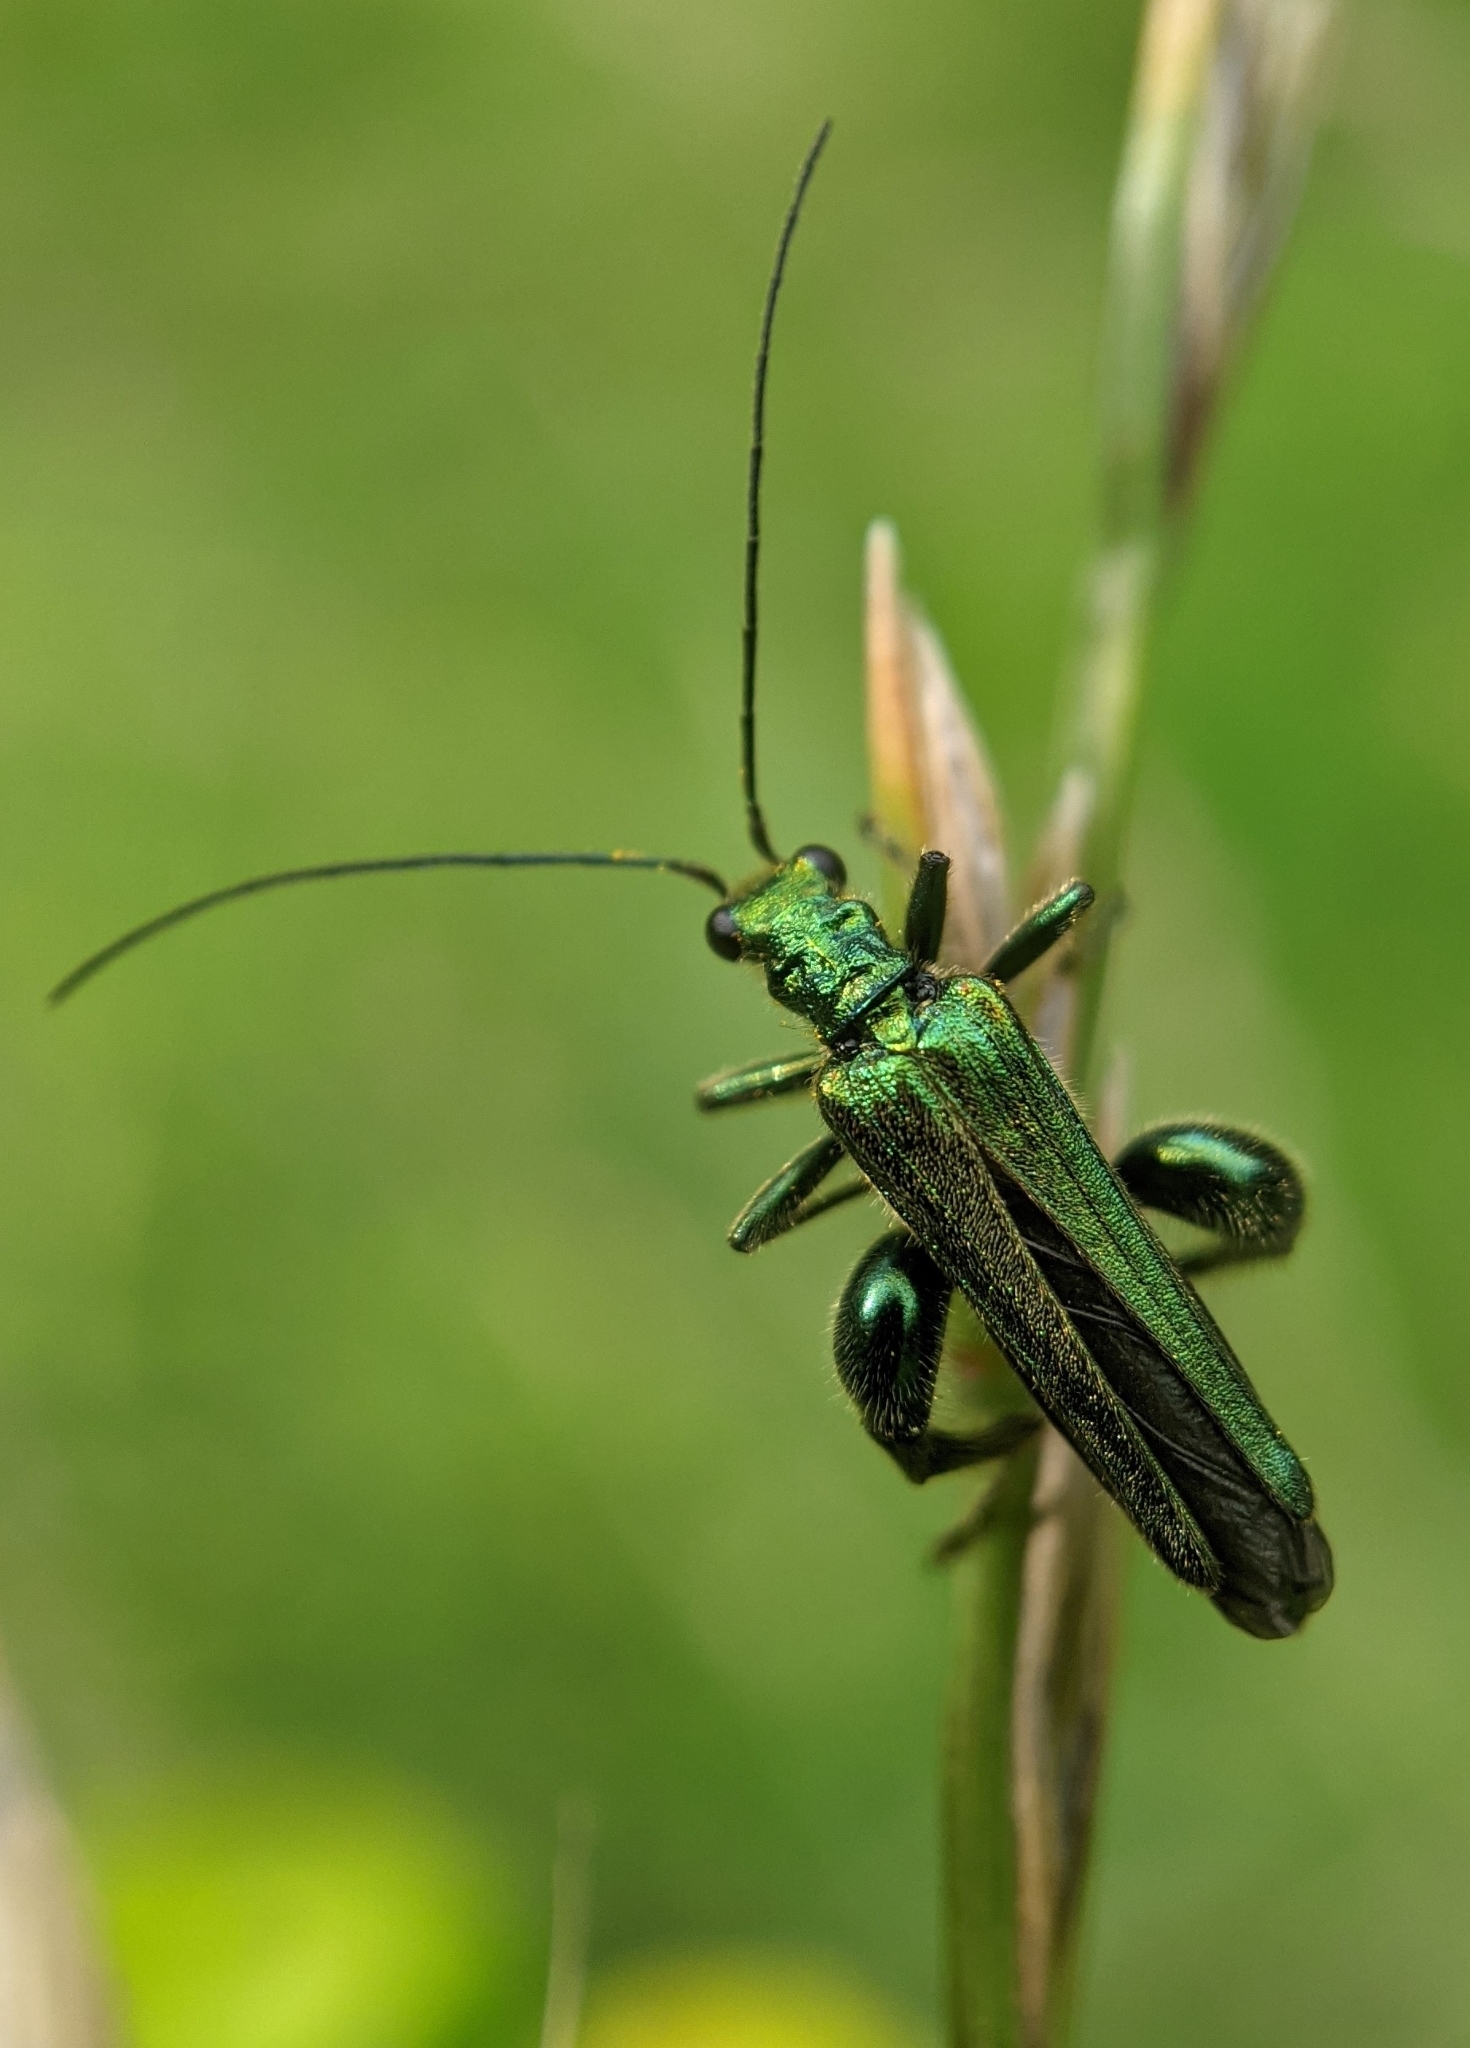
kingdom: Animalia
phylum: Arthropoda
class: Insecta
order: Coleoptera
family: Oedemeridae
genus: Oedemera
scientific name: Oedemera nobilis
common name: Swollen-thighed beetle
